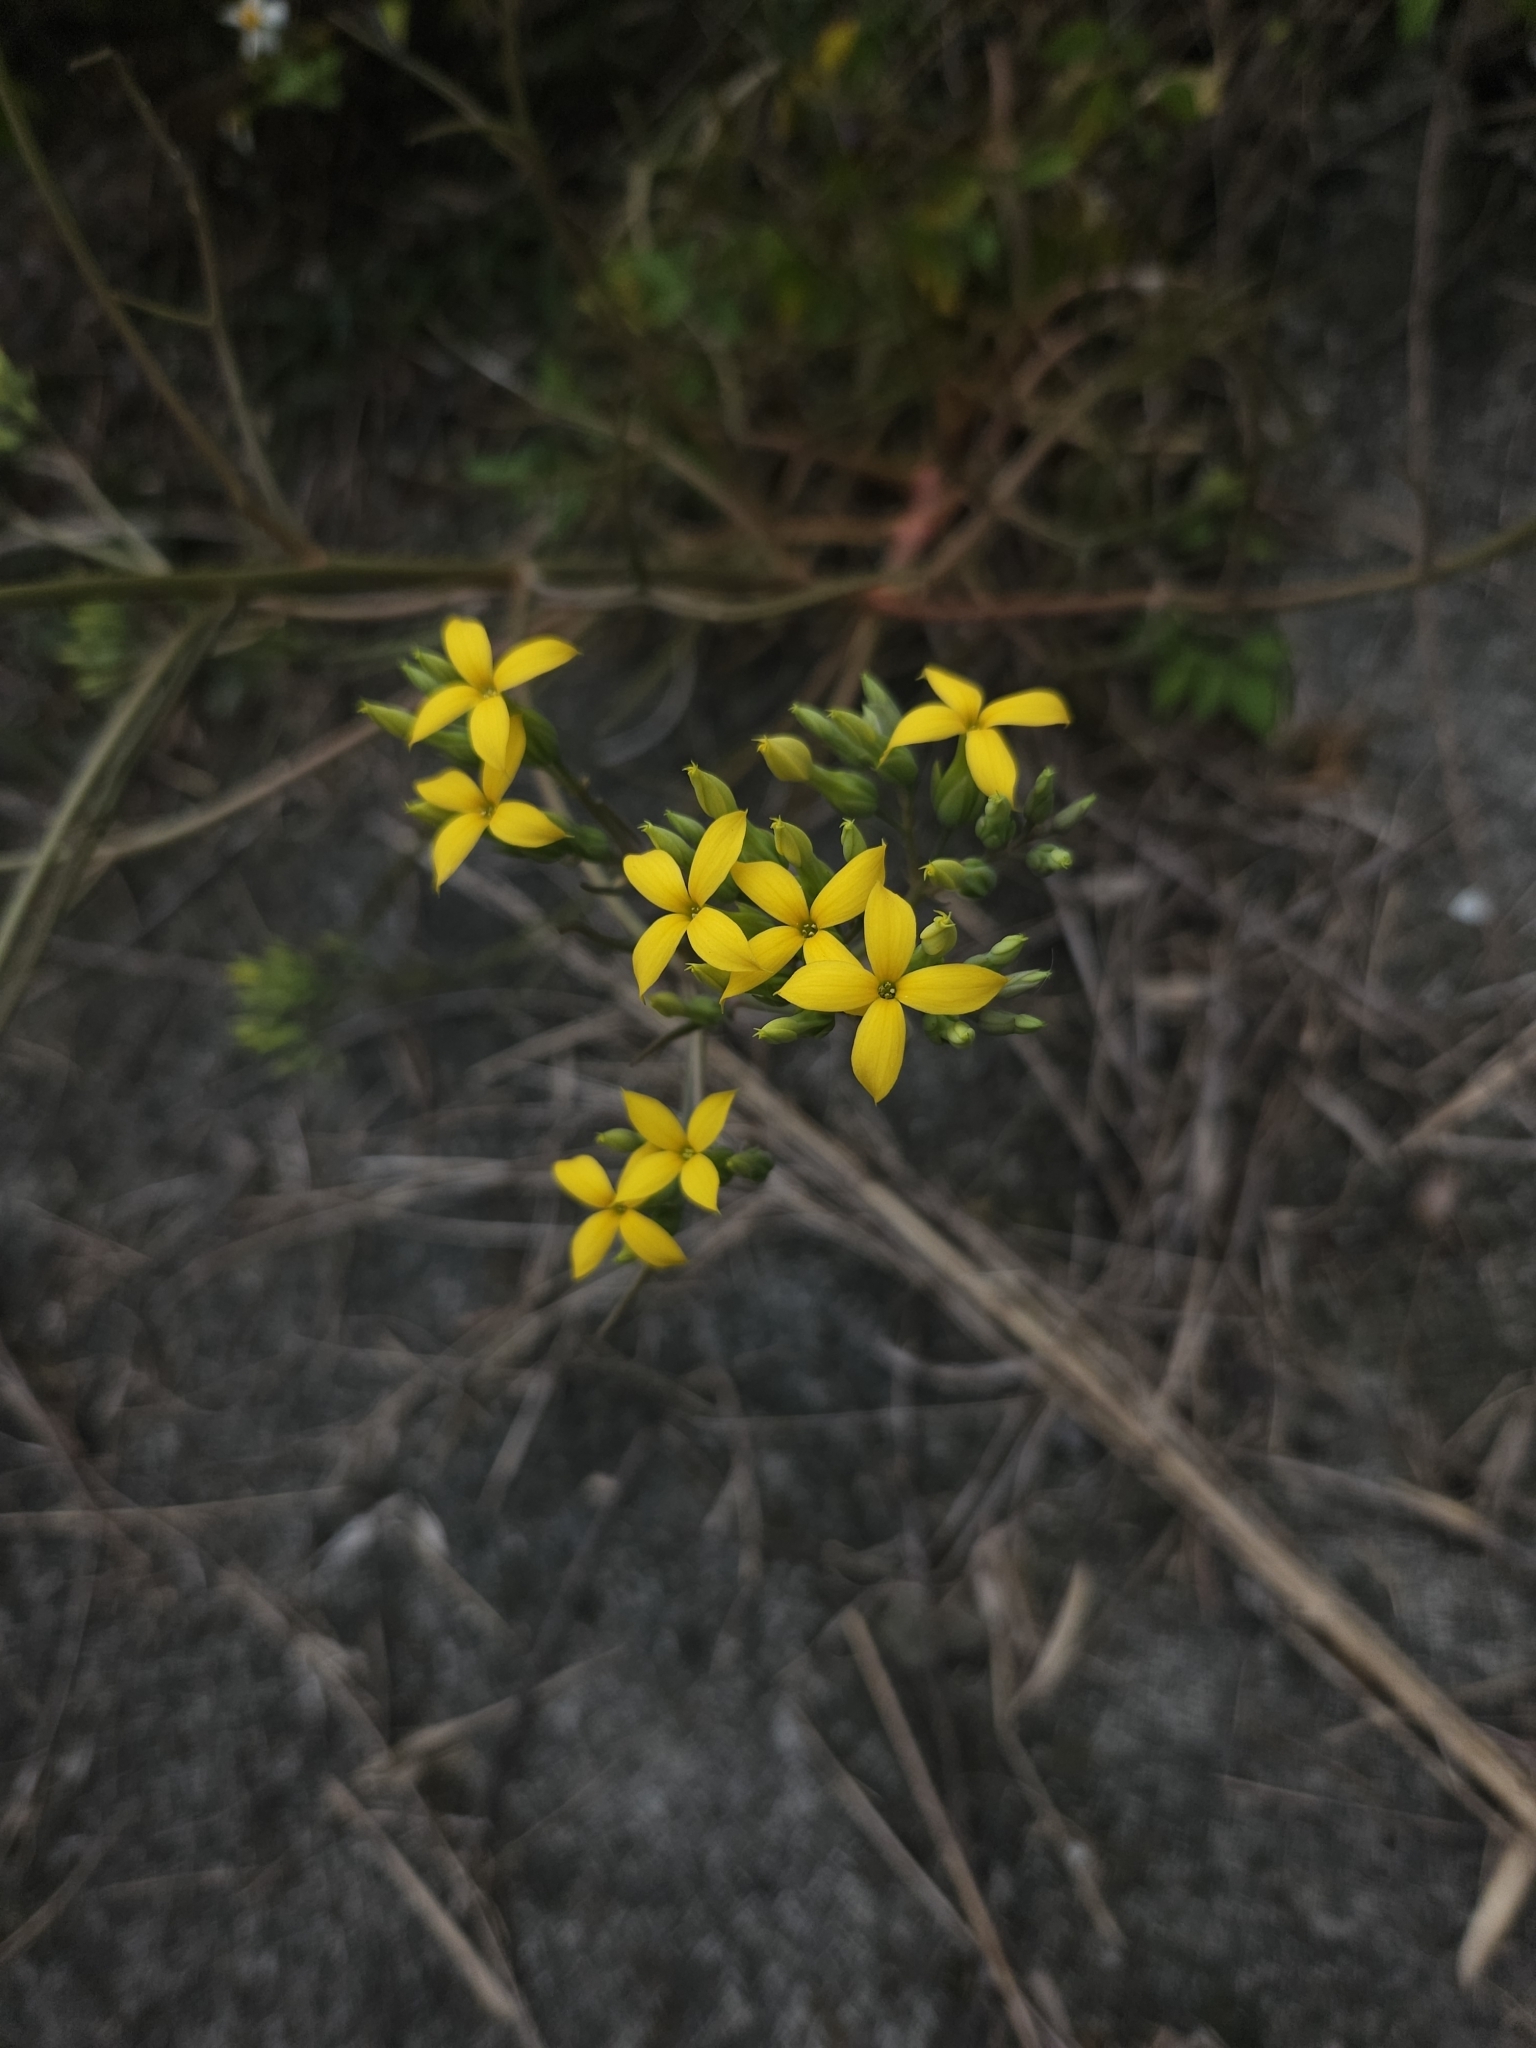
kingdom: Plantae
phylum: Tracheophyta
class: Magnoliopsida
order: Saxifragales
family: Crassulaceae
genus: Kalanchoe
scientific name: Kalanchoe ceratophylla
